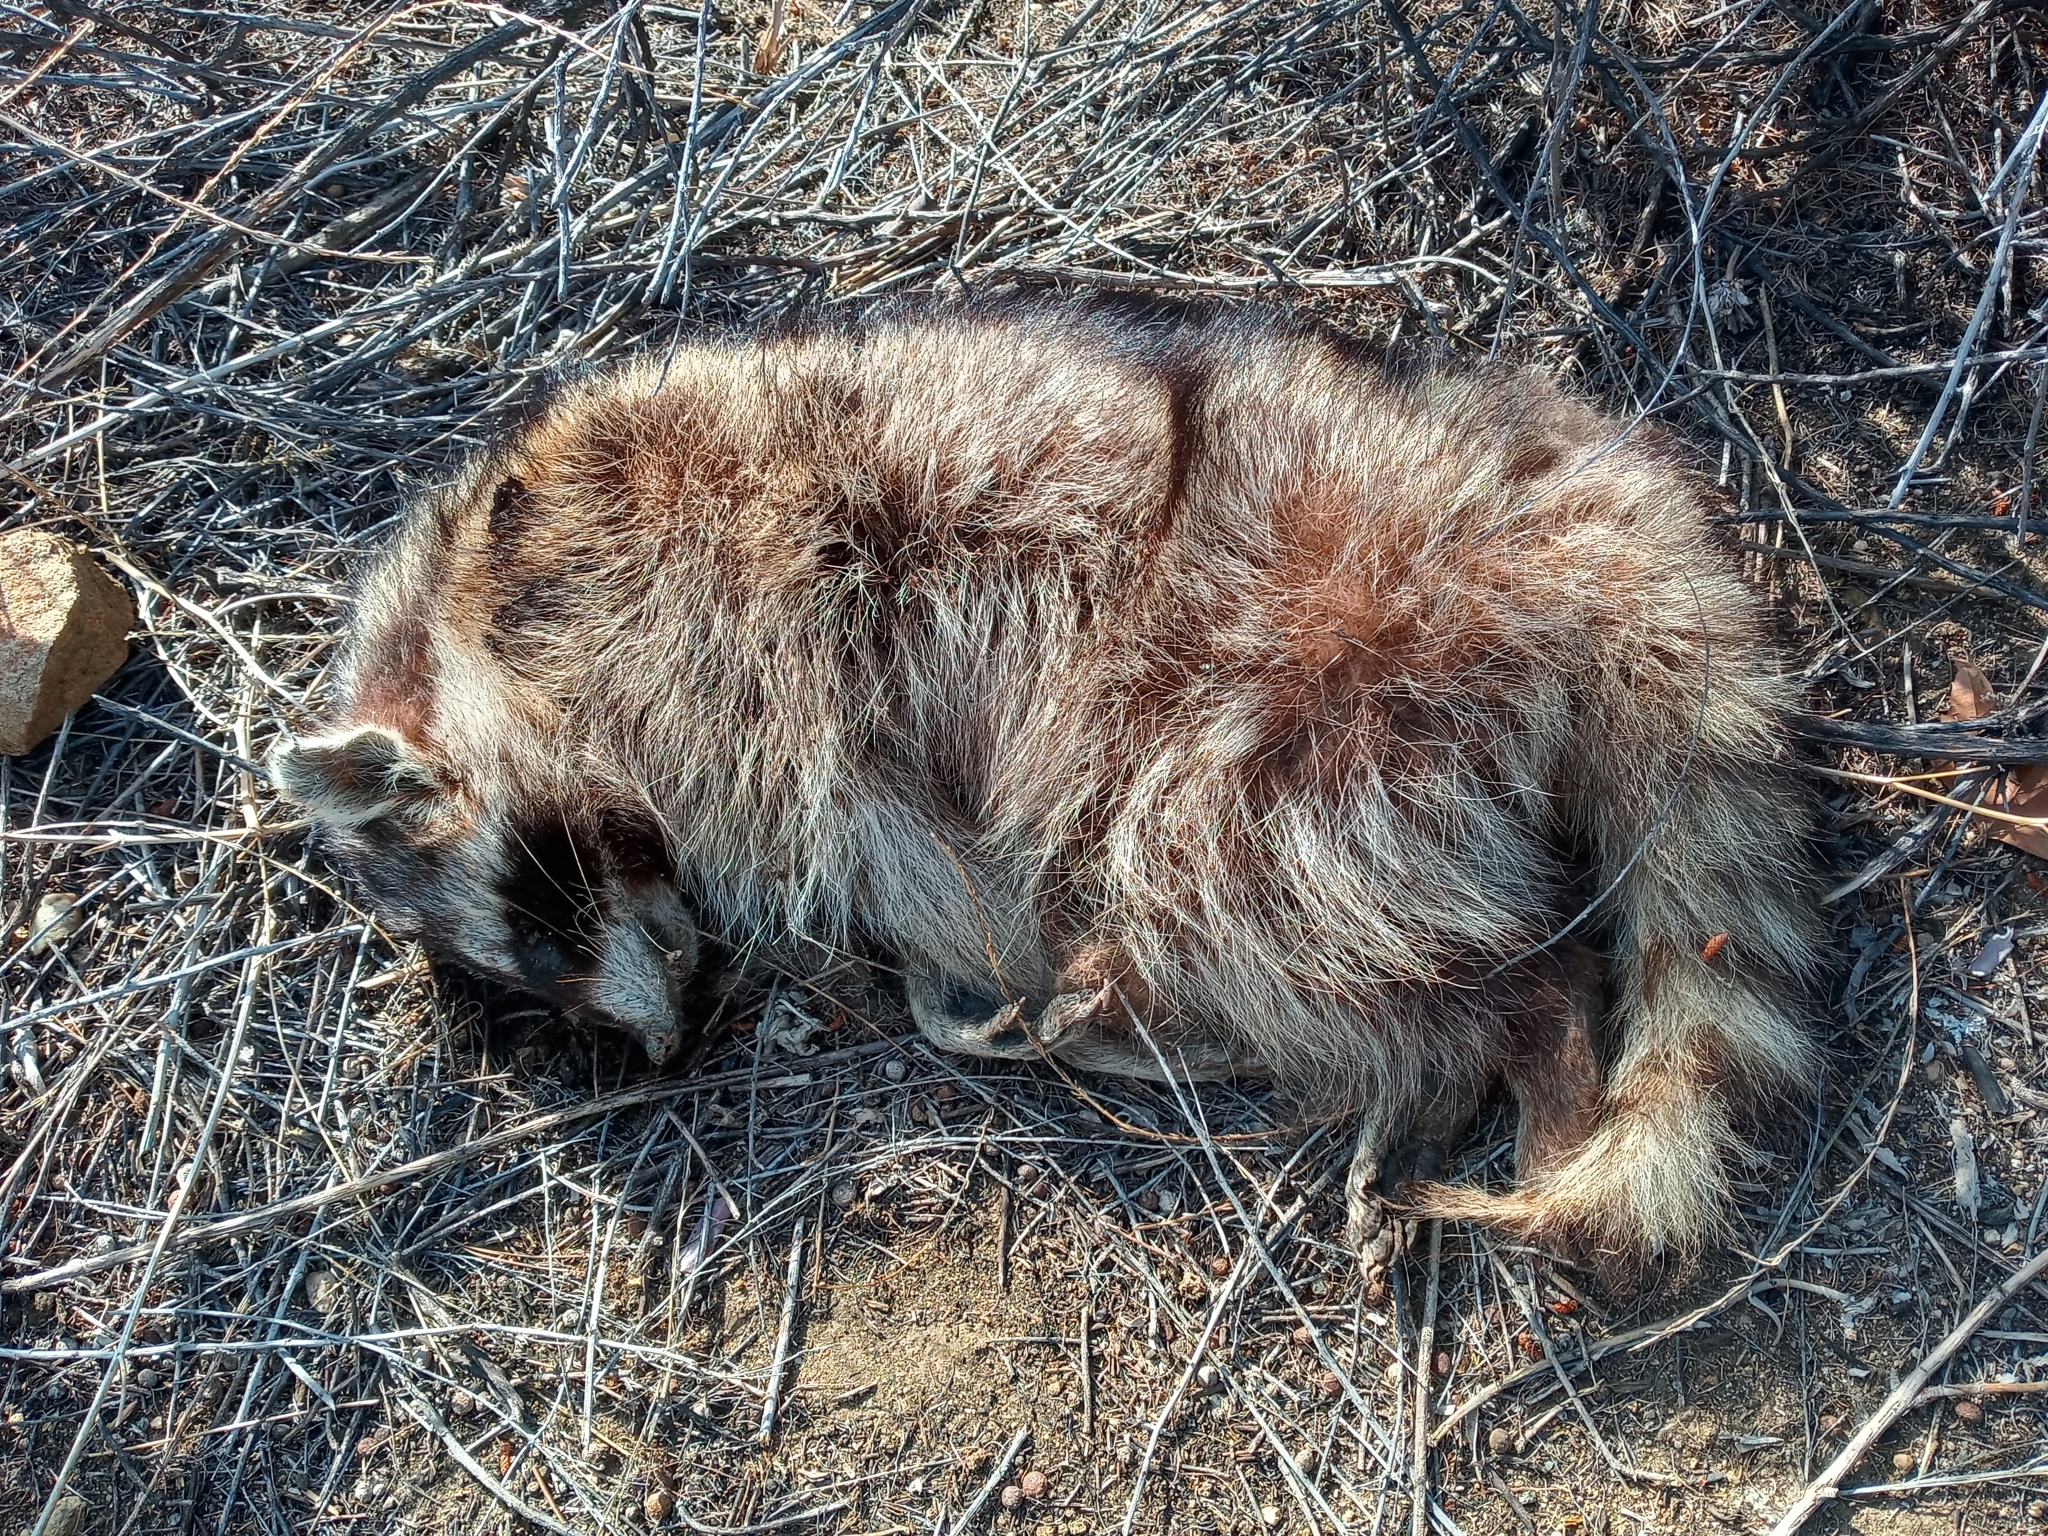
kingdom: Animalia
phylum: Chordata
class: Mammalia
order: Carnivora
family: Procyonidae
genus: Procyon
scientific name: Procyon lotor
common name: Raccoon
